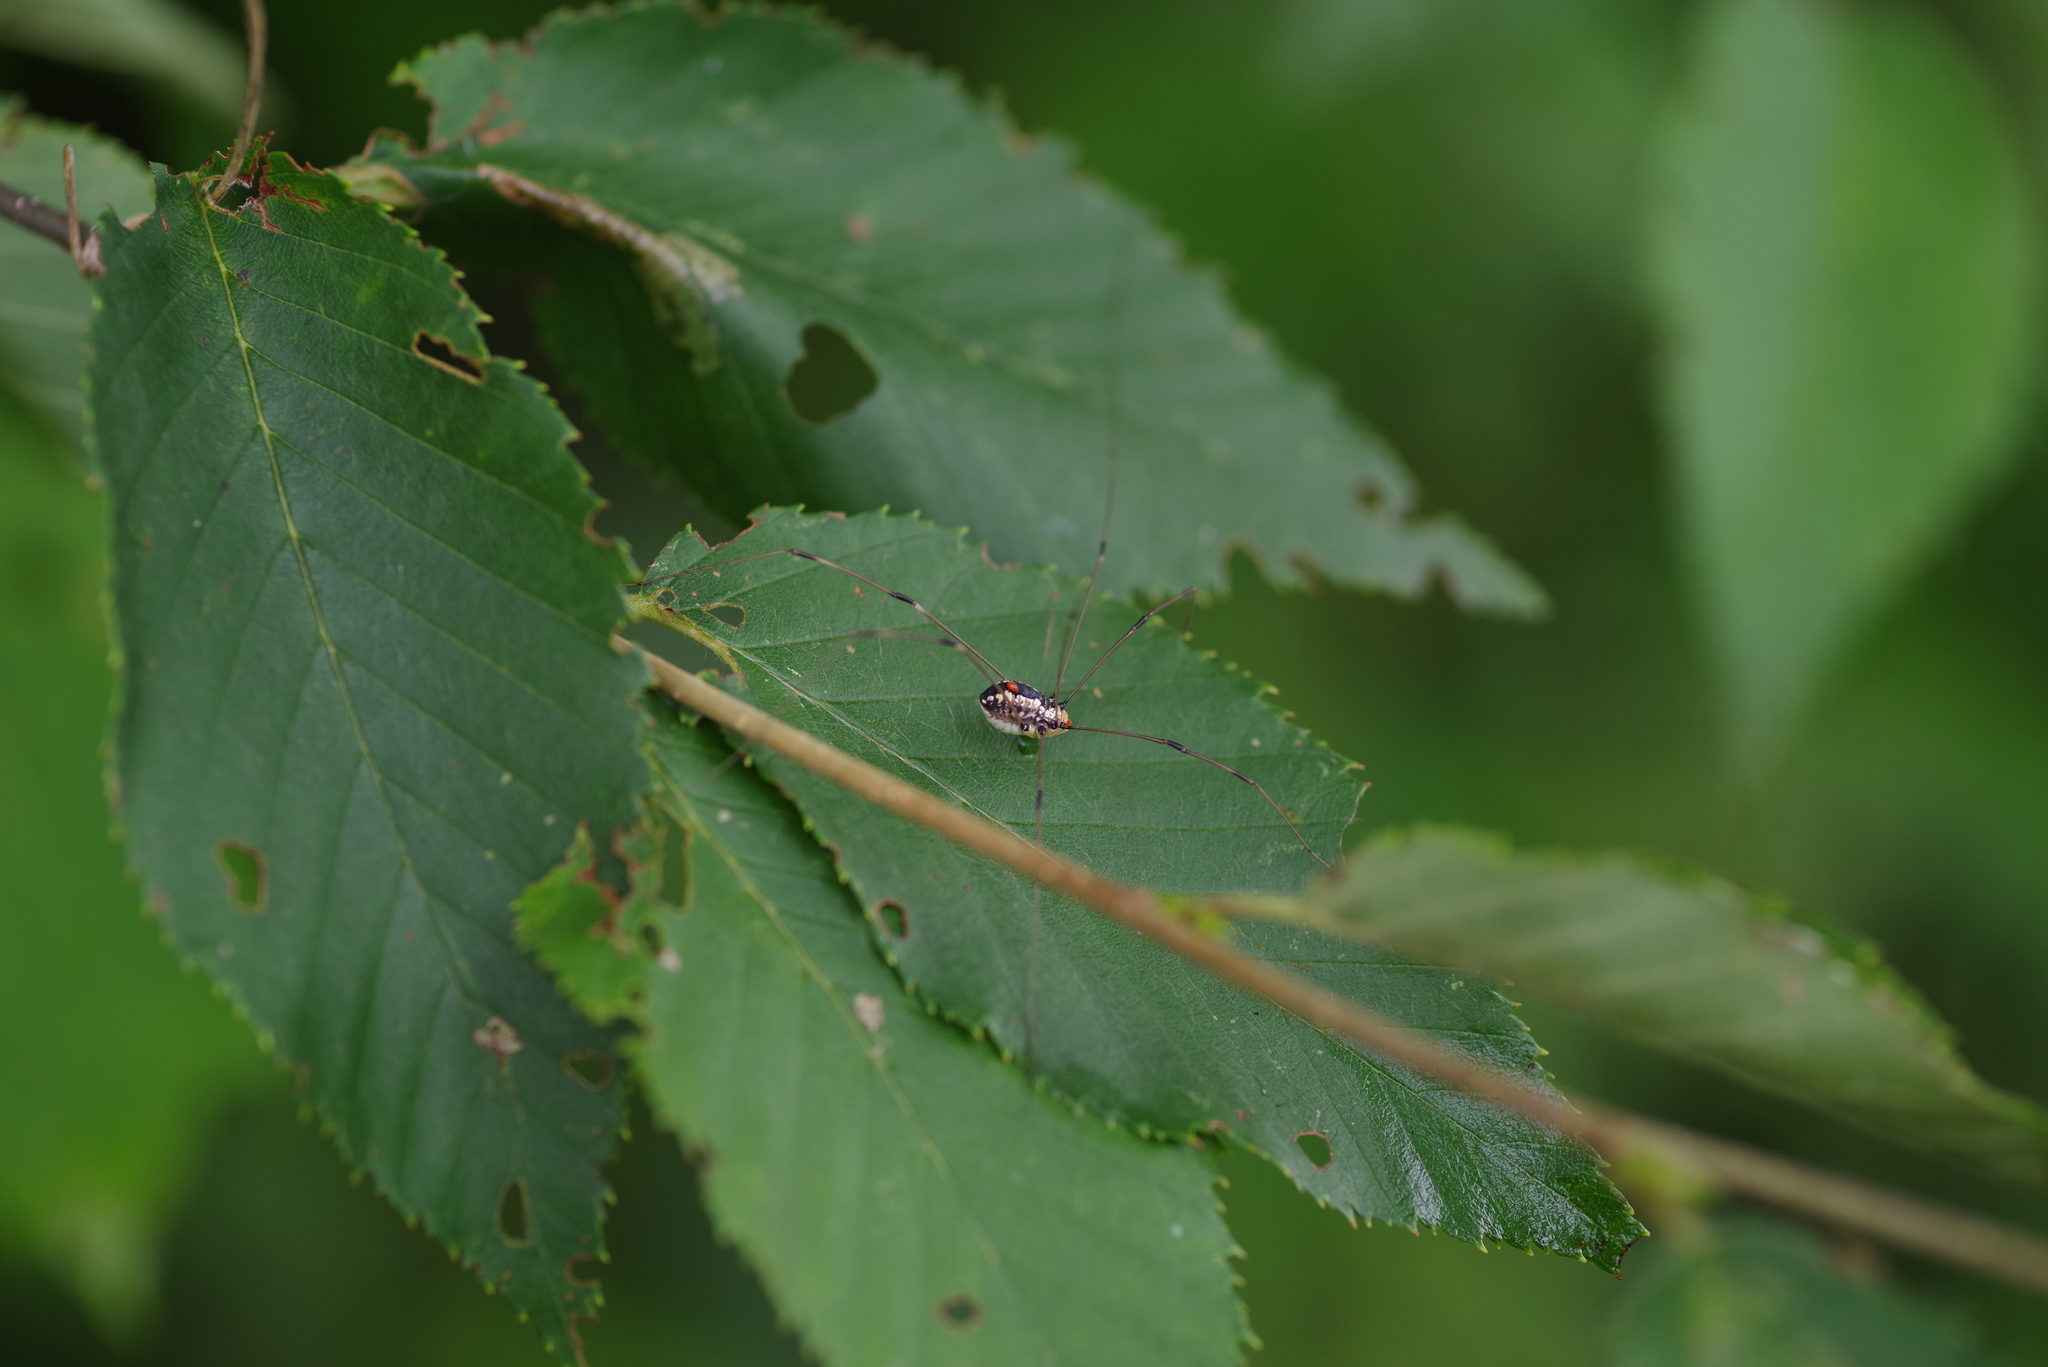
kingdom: Animalia
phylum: Arthropoda
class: Arachnida
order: Opiliones
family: Sclerosomatidae
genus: Leiobunum
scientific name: Leiobunum vittatum
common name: Eastern harvestman
